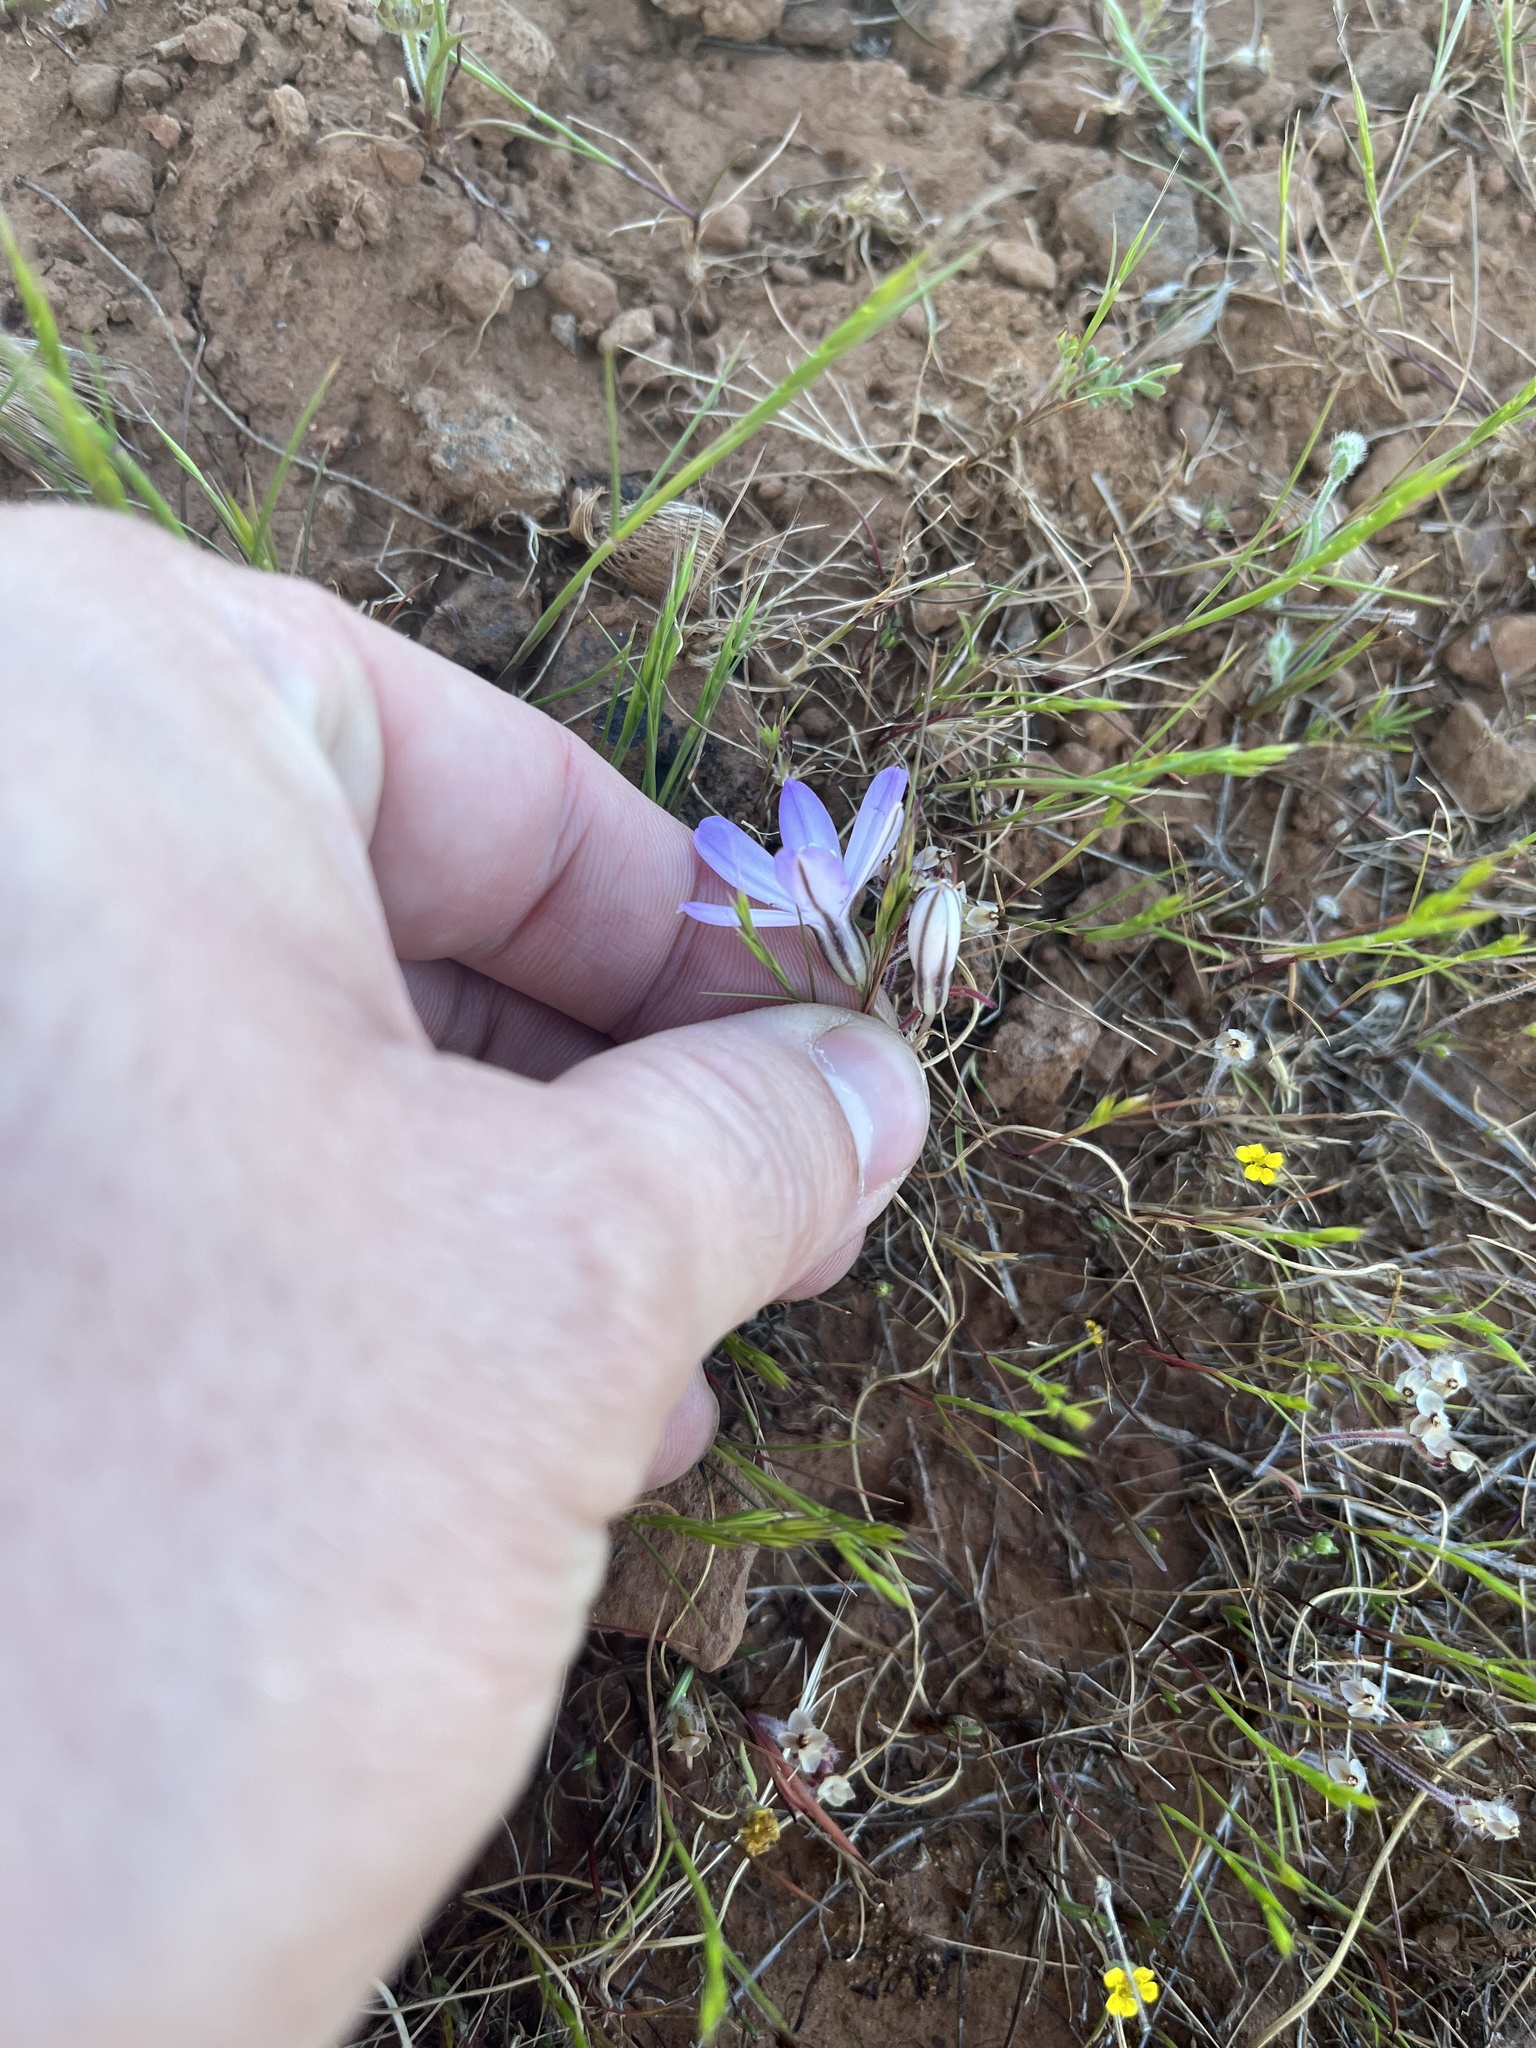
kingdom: Plantae
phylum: Tracheophyta
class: Liliopsida
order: Asparagales
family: Asparagaceae
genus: Brodiaea
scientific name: Brodiaea nana
